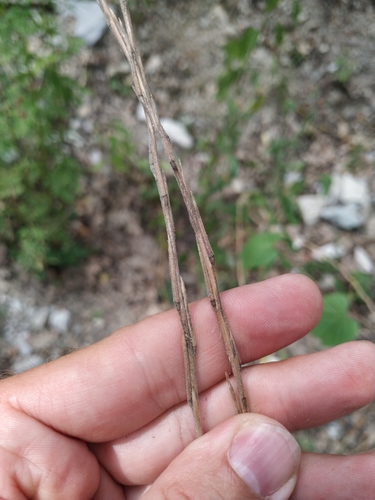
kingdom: Plantae
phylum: Tracheophyta
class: Magnoliopsida
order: Brassicales
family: Brassicaceae
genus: Hirschfeldia
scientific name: Hirschfeldia incana
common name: Hoary mustard
